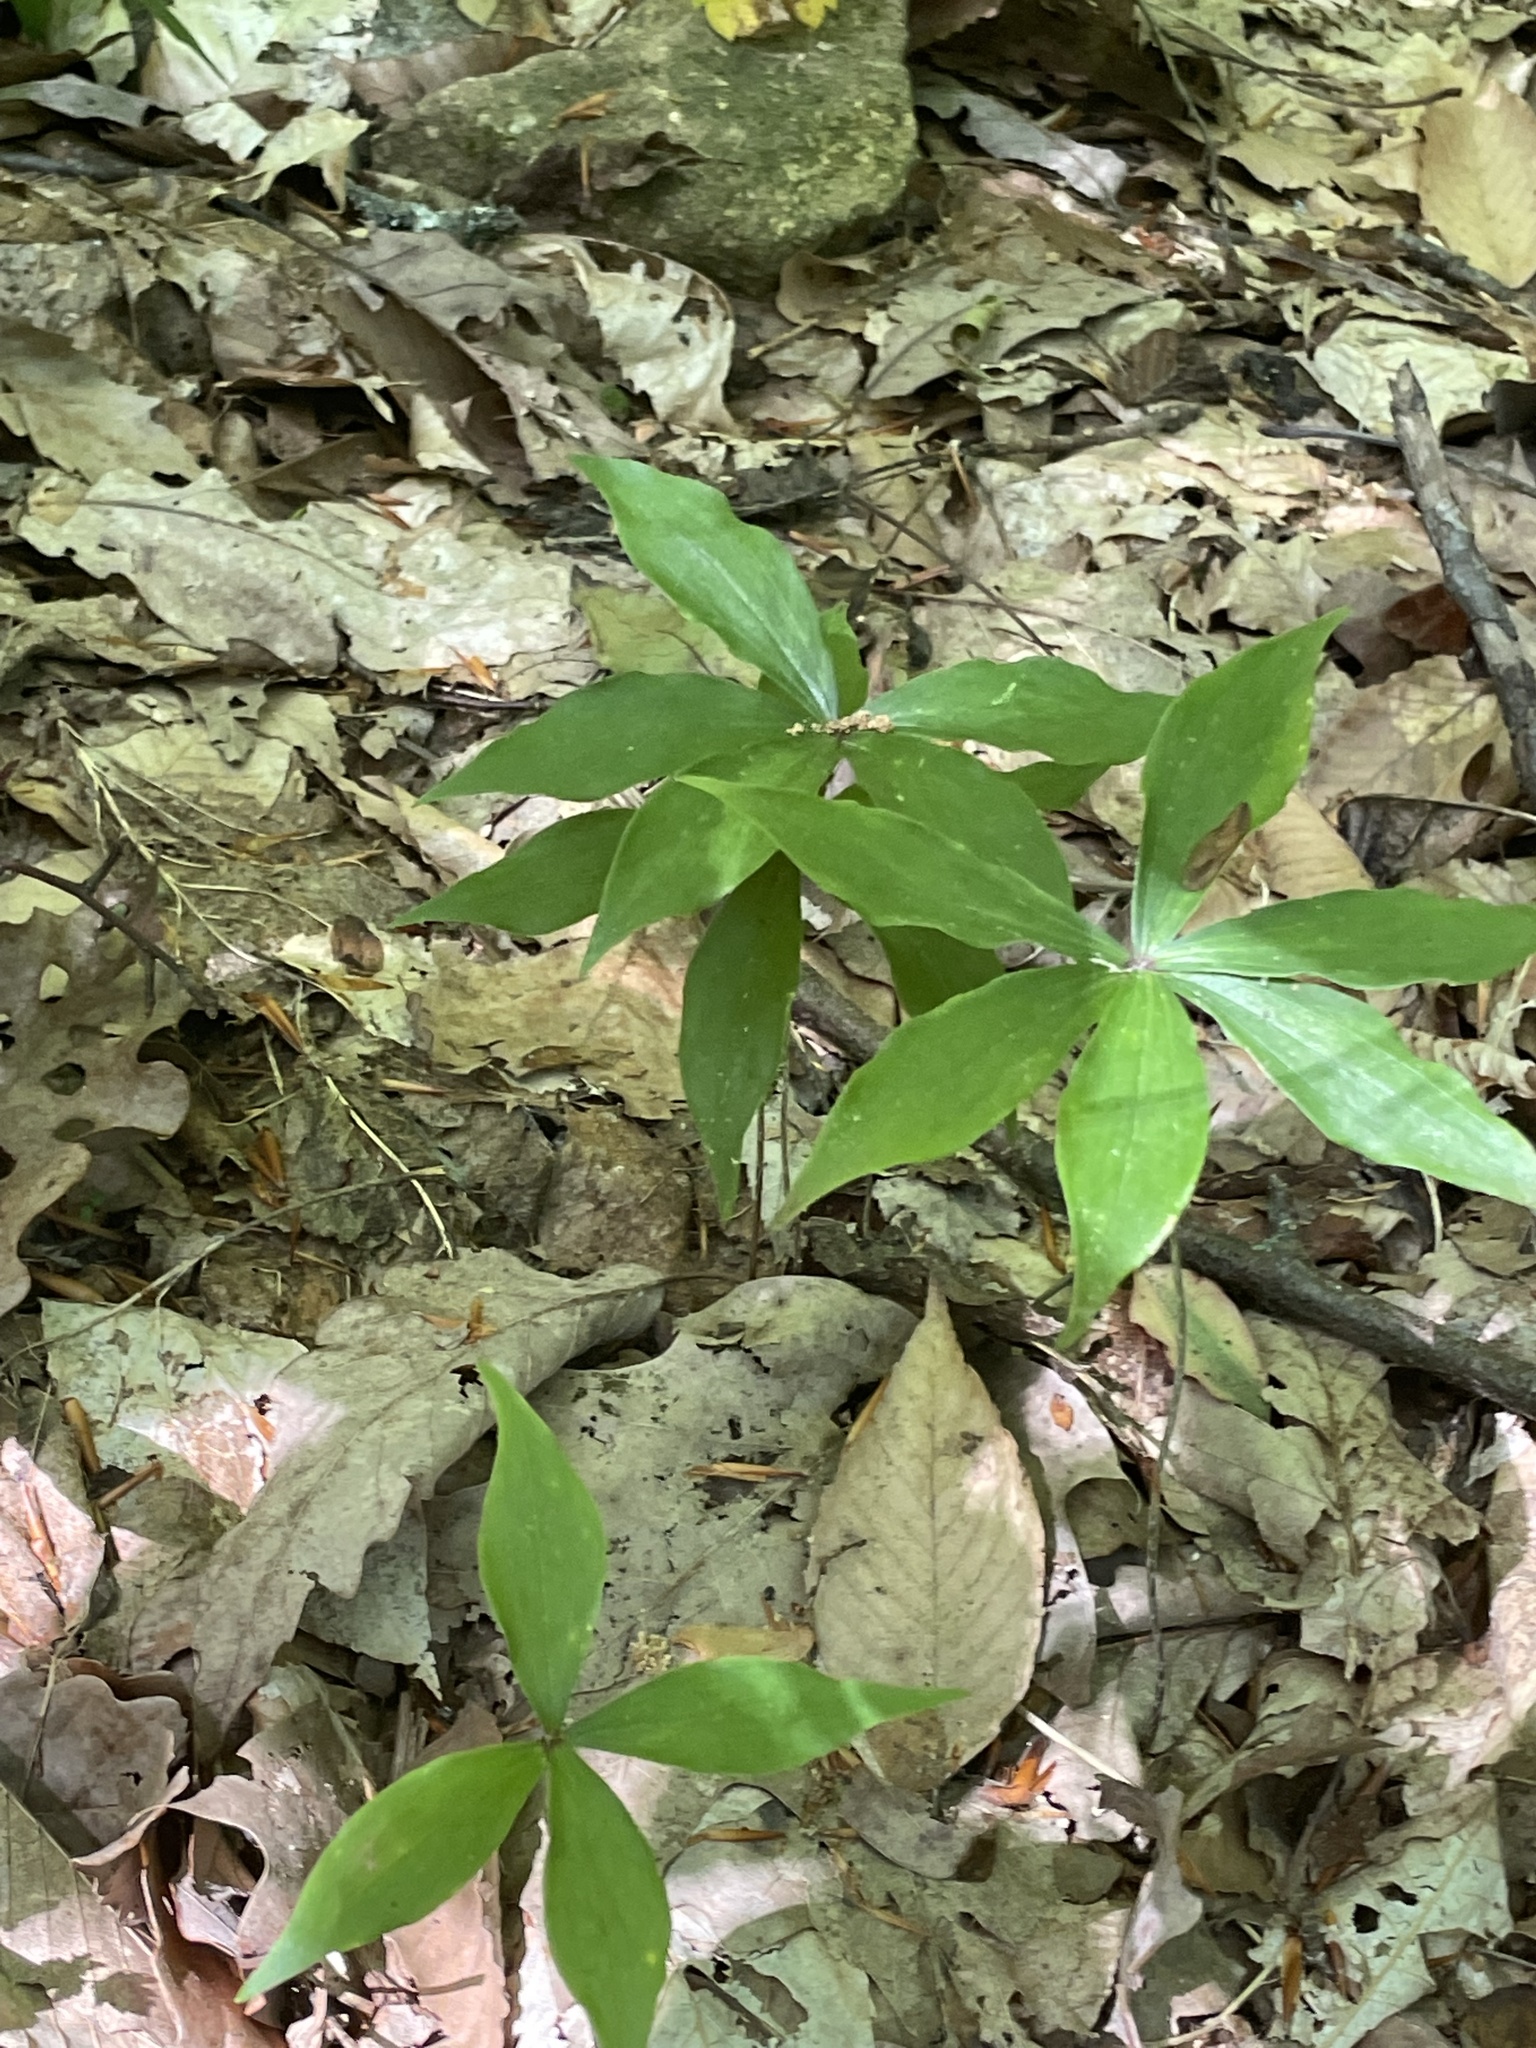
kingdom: Plantae
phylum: Tracheophyta
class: Liliopsida
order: Liliales
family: Liliaceae
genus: Medeola
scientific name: Medeola virginiana
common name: Indian cucumber-root
